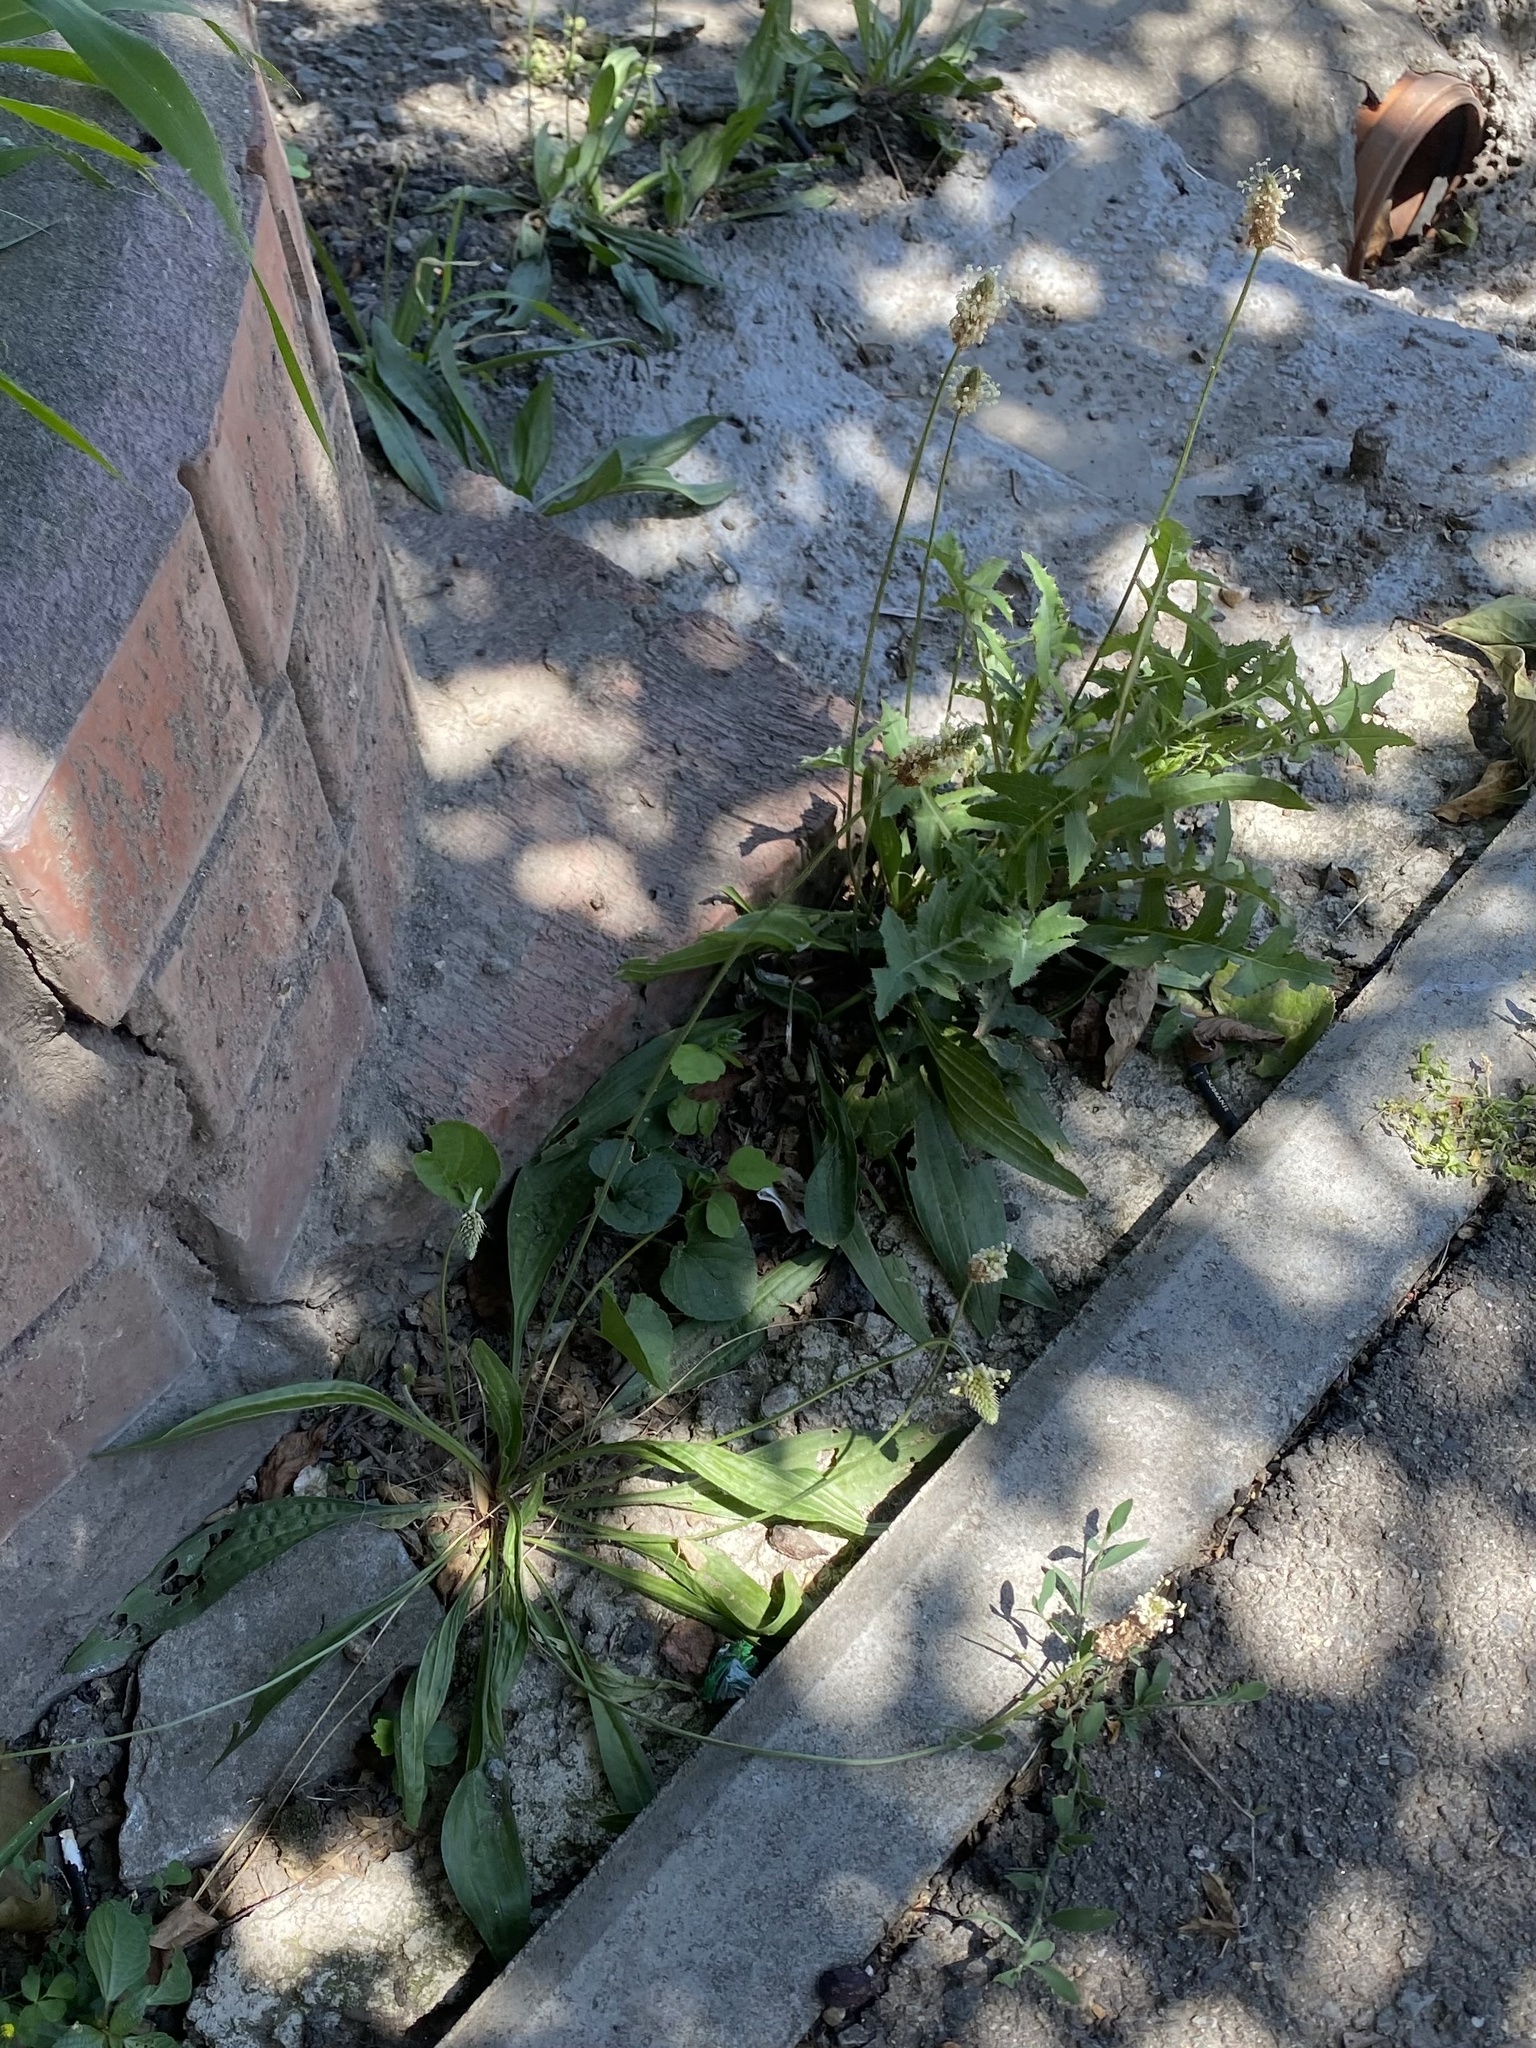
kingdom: Plantae
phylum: Tracheophyta
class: Magnoliopsida
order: Lamiales
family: Plantaginaceae
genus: Plantago
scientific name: Plantago lanceolata
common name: Ribwort plantain
